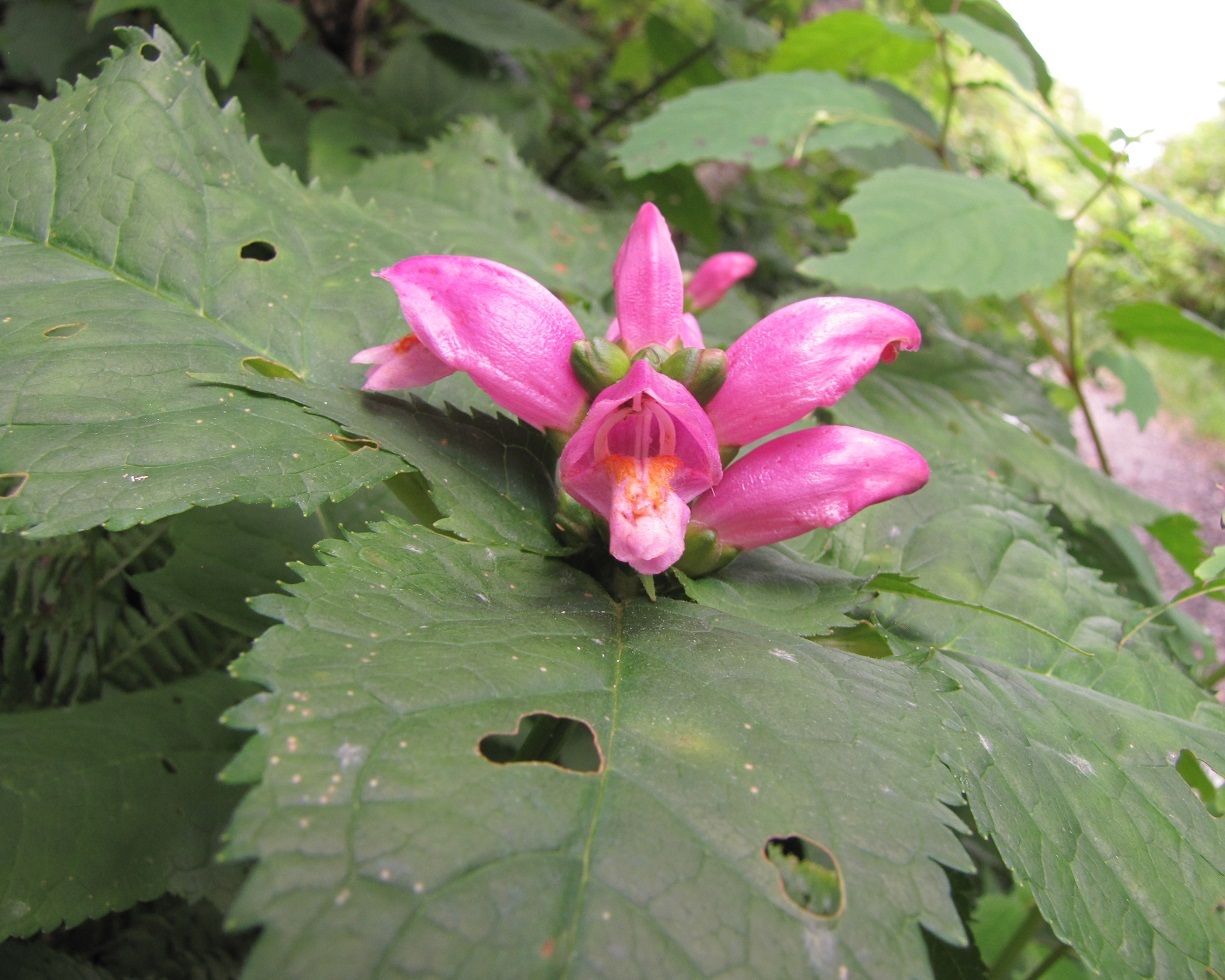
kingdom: Plantae
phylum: Tracheophyta
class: Magnoliopsida
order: Lamiales
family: Plantaginaceae
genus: Chelone
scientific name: Chelone lyonii
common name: Pink turtlehead
